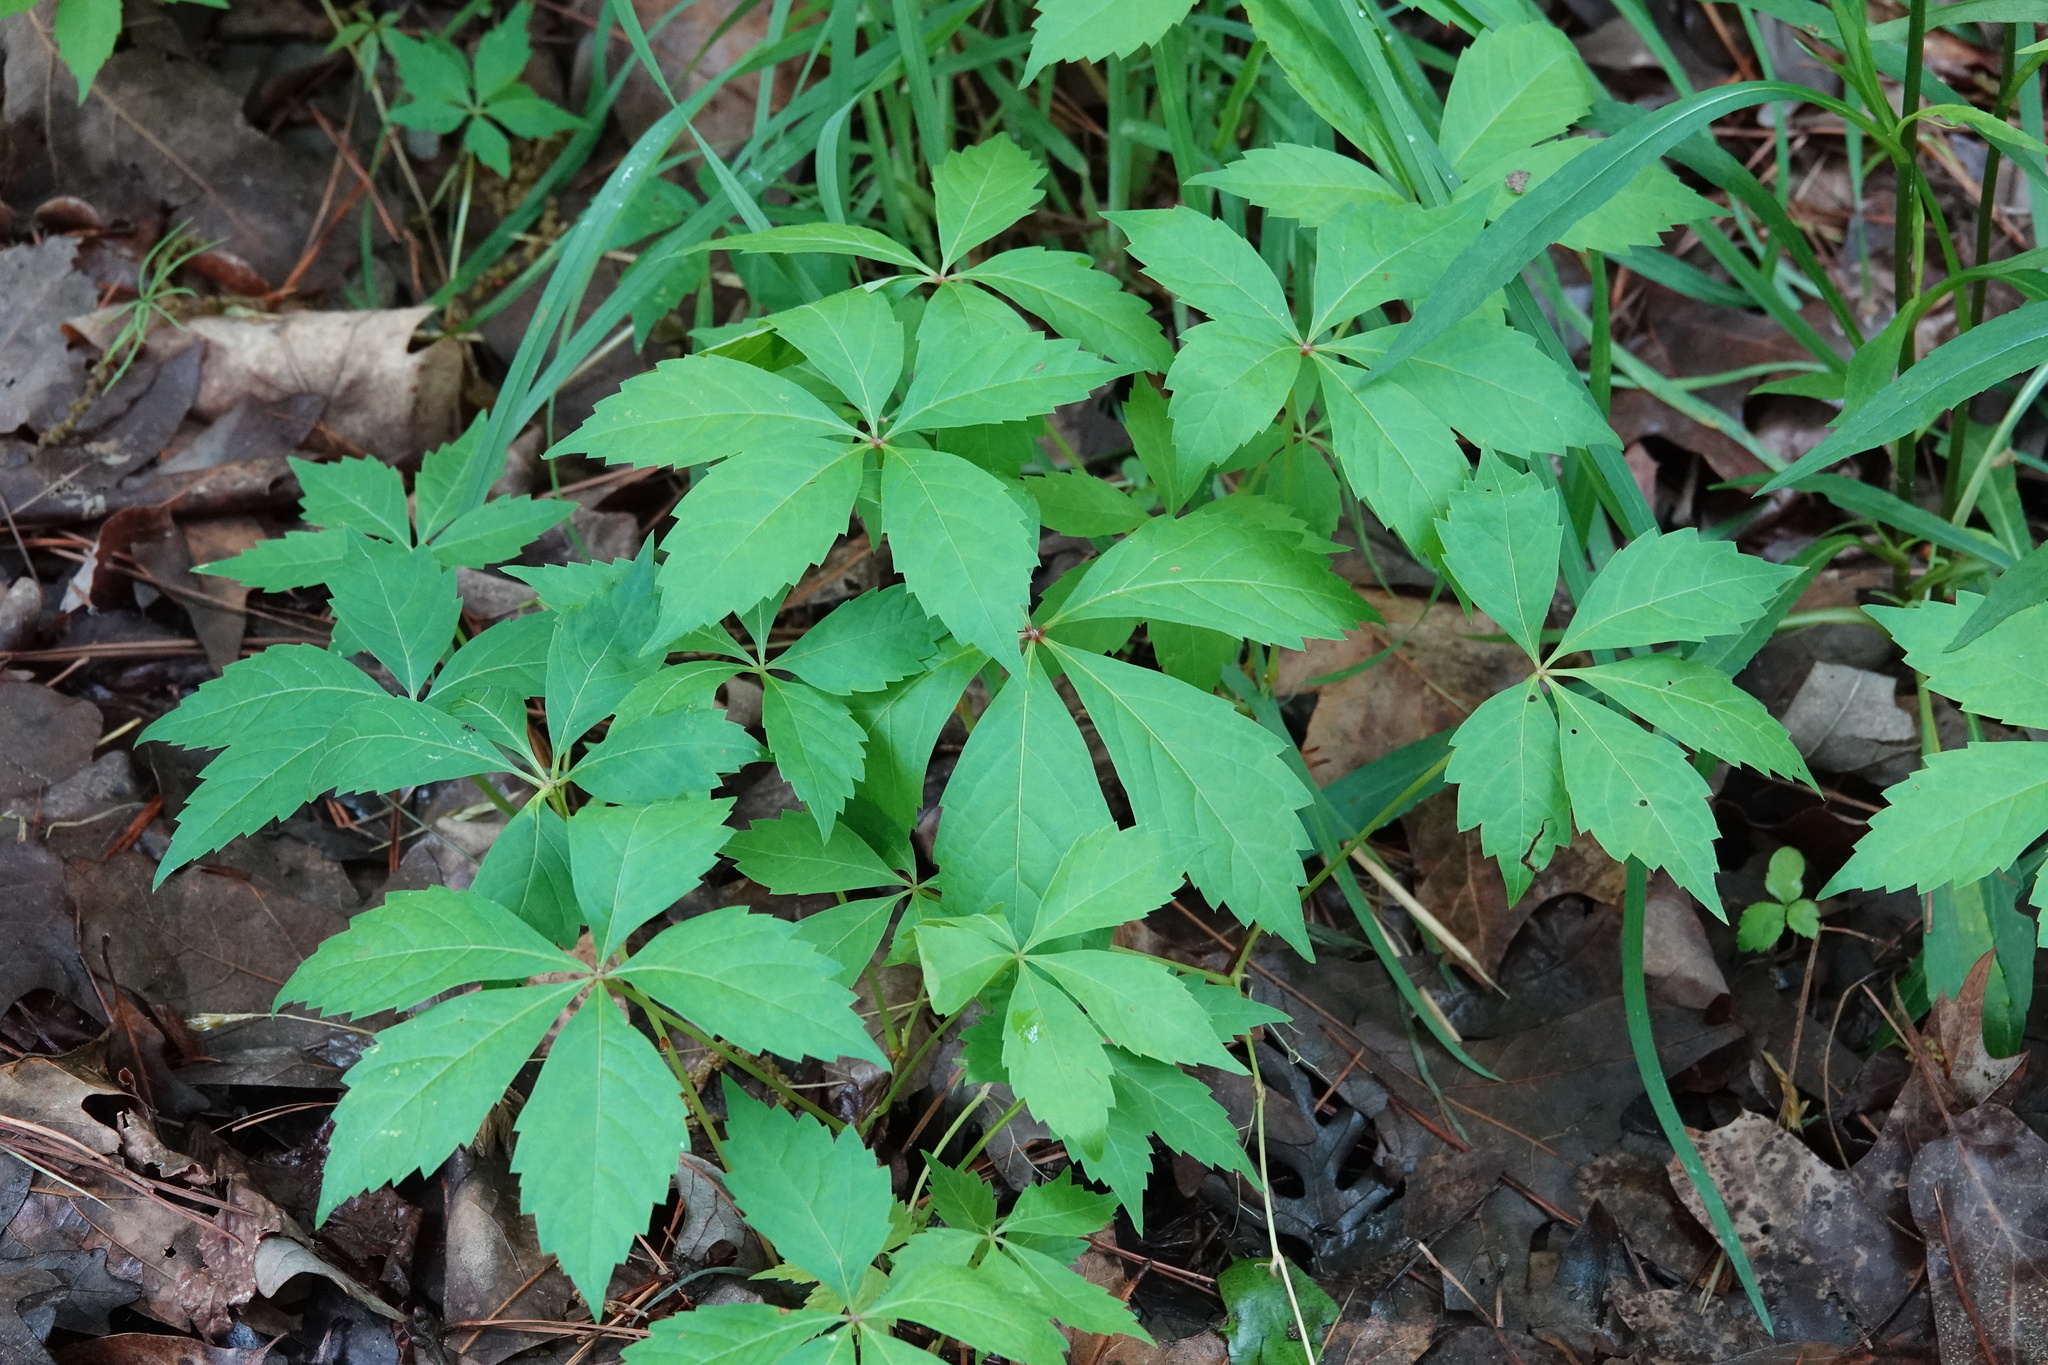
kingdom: Plantae
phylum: Tracheophyta
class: Magnoliopsida
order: Vitales
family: Vitaceae
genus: Parthenocissus
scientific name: Parthenocissus quinquefolia
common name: Virginia-creeper
